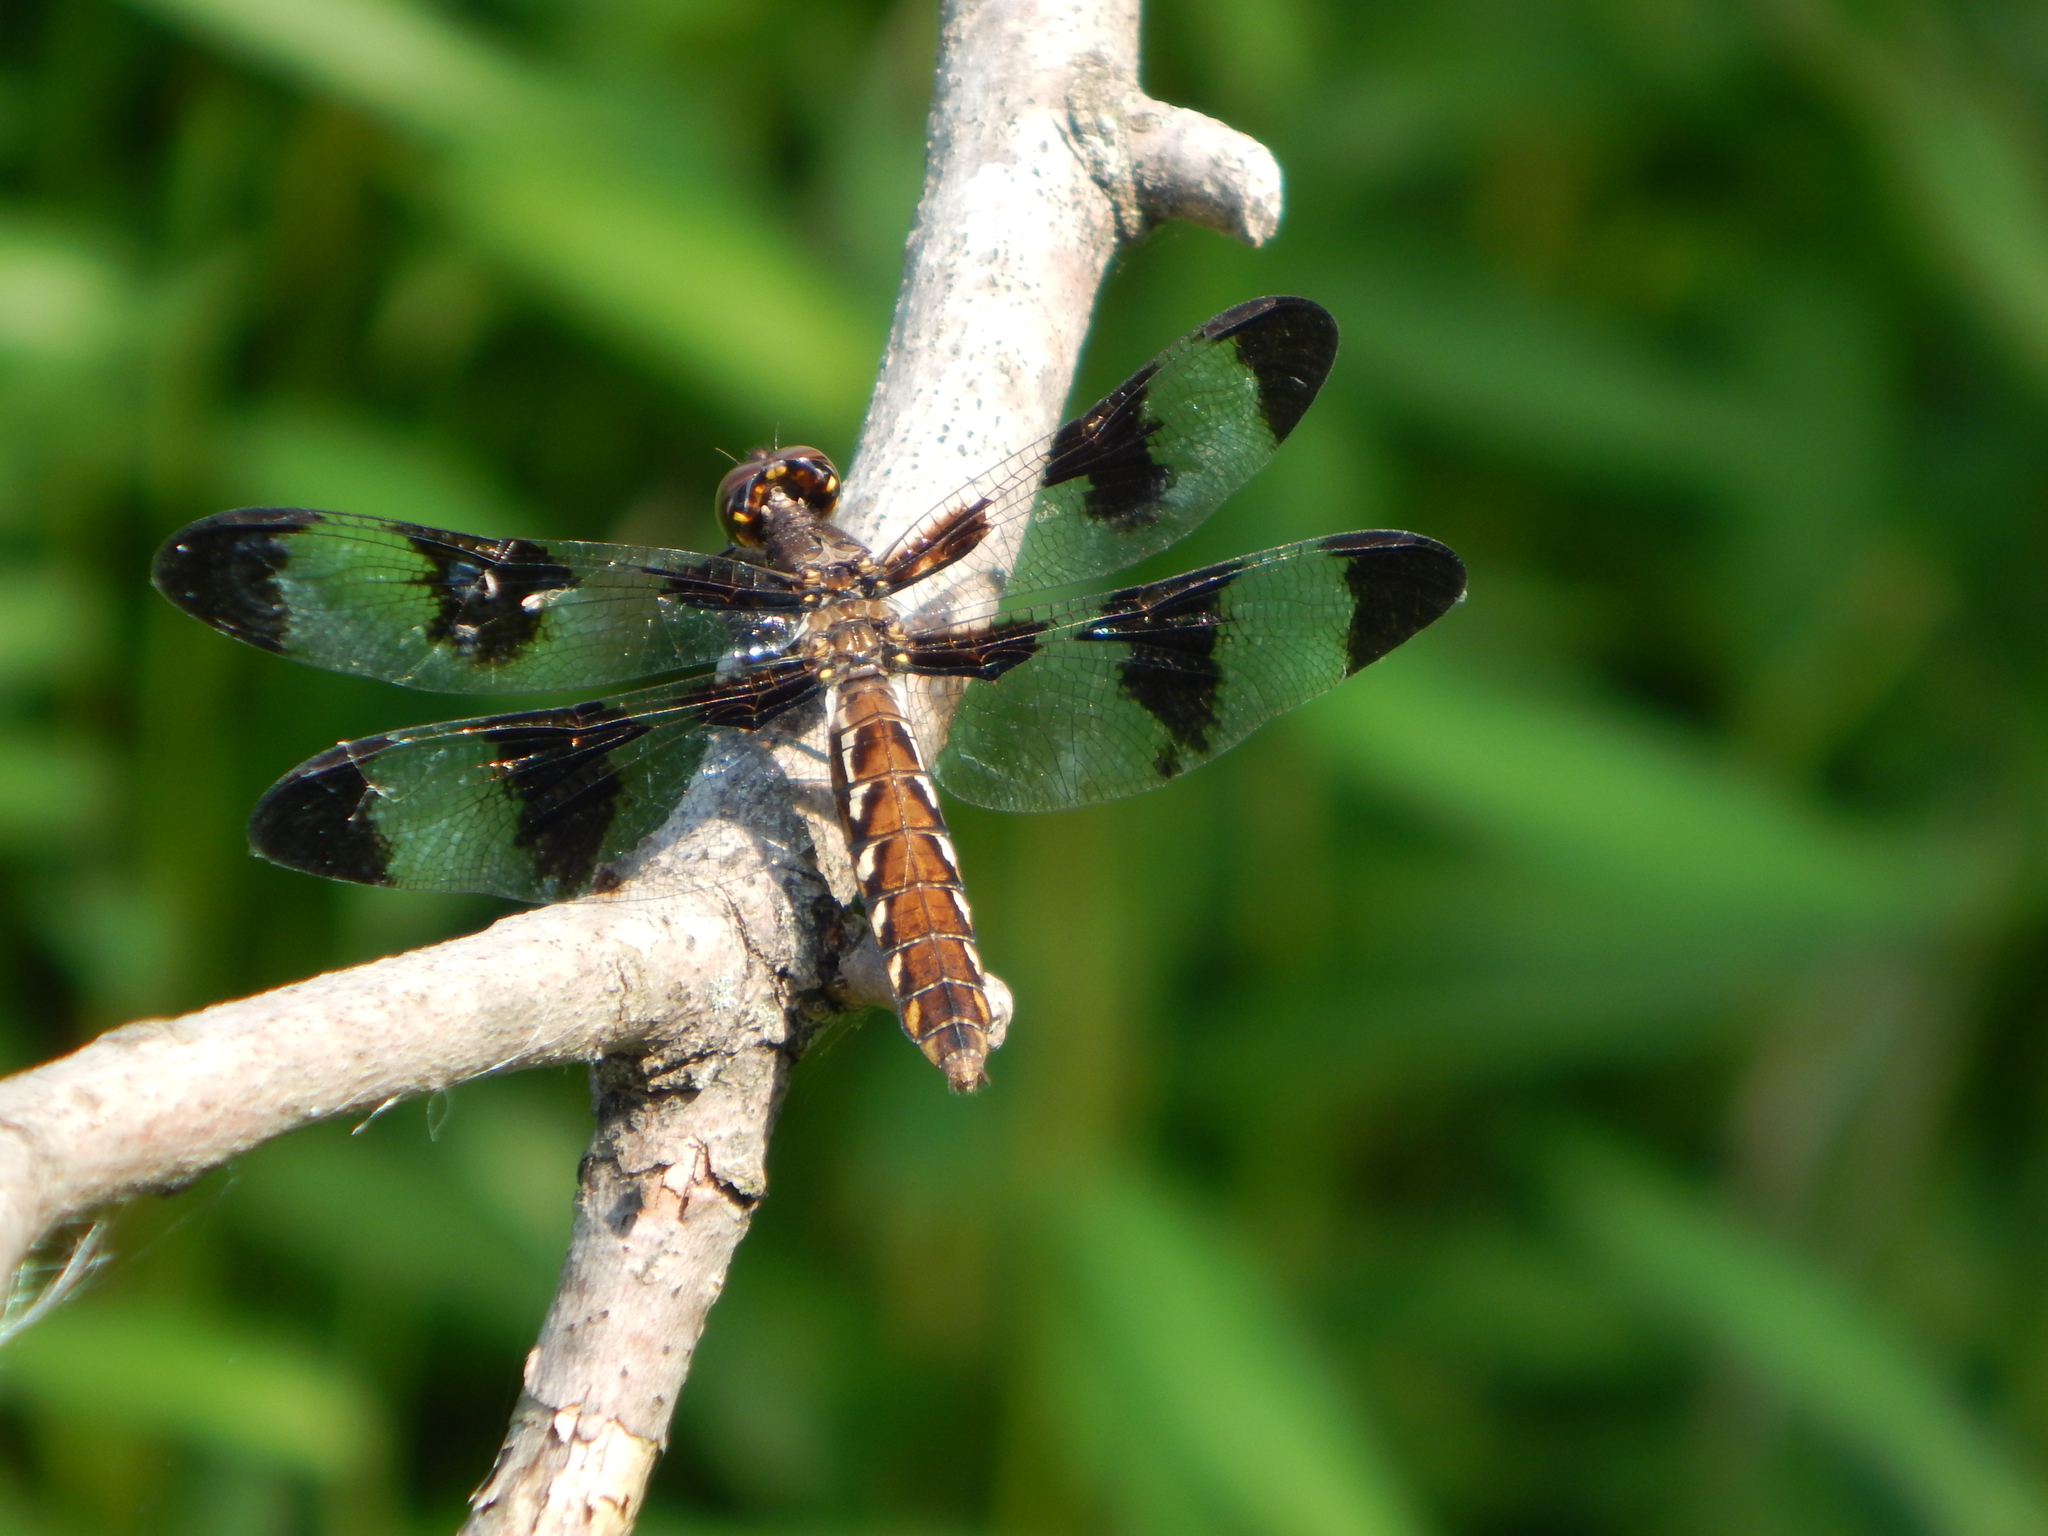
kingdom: Animalia
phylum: Arthropoda
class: Insecta
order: Odonata
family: Libellulidae
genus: Plathemis
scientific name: Plathemis lydia
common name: Common whitetail
